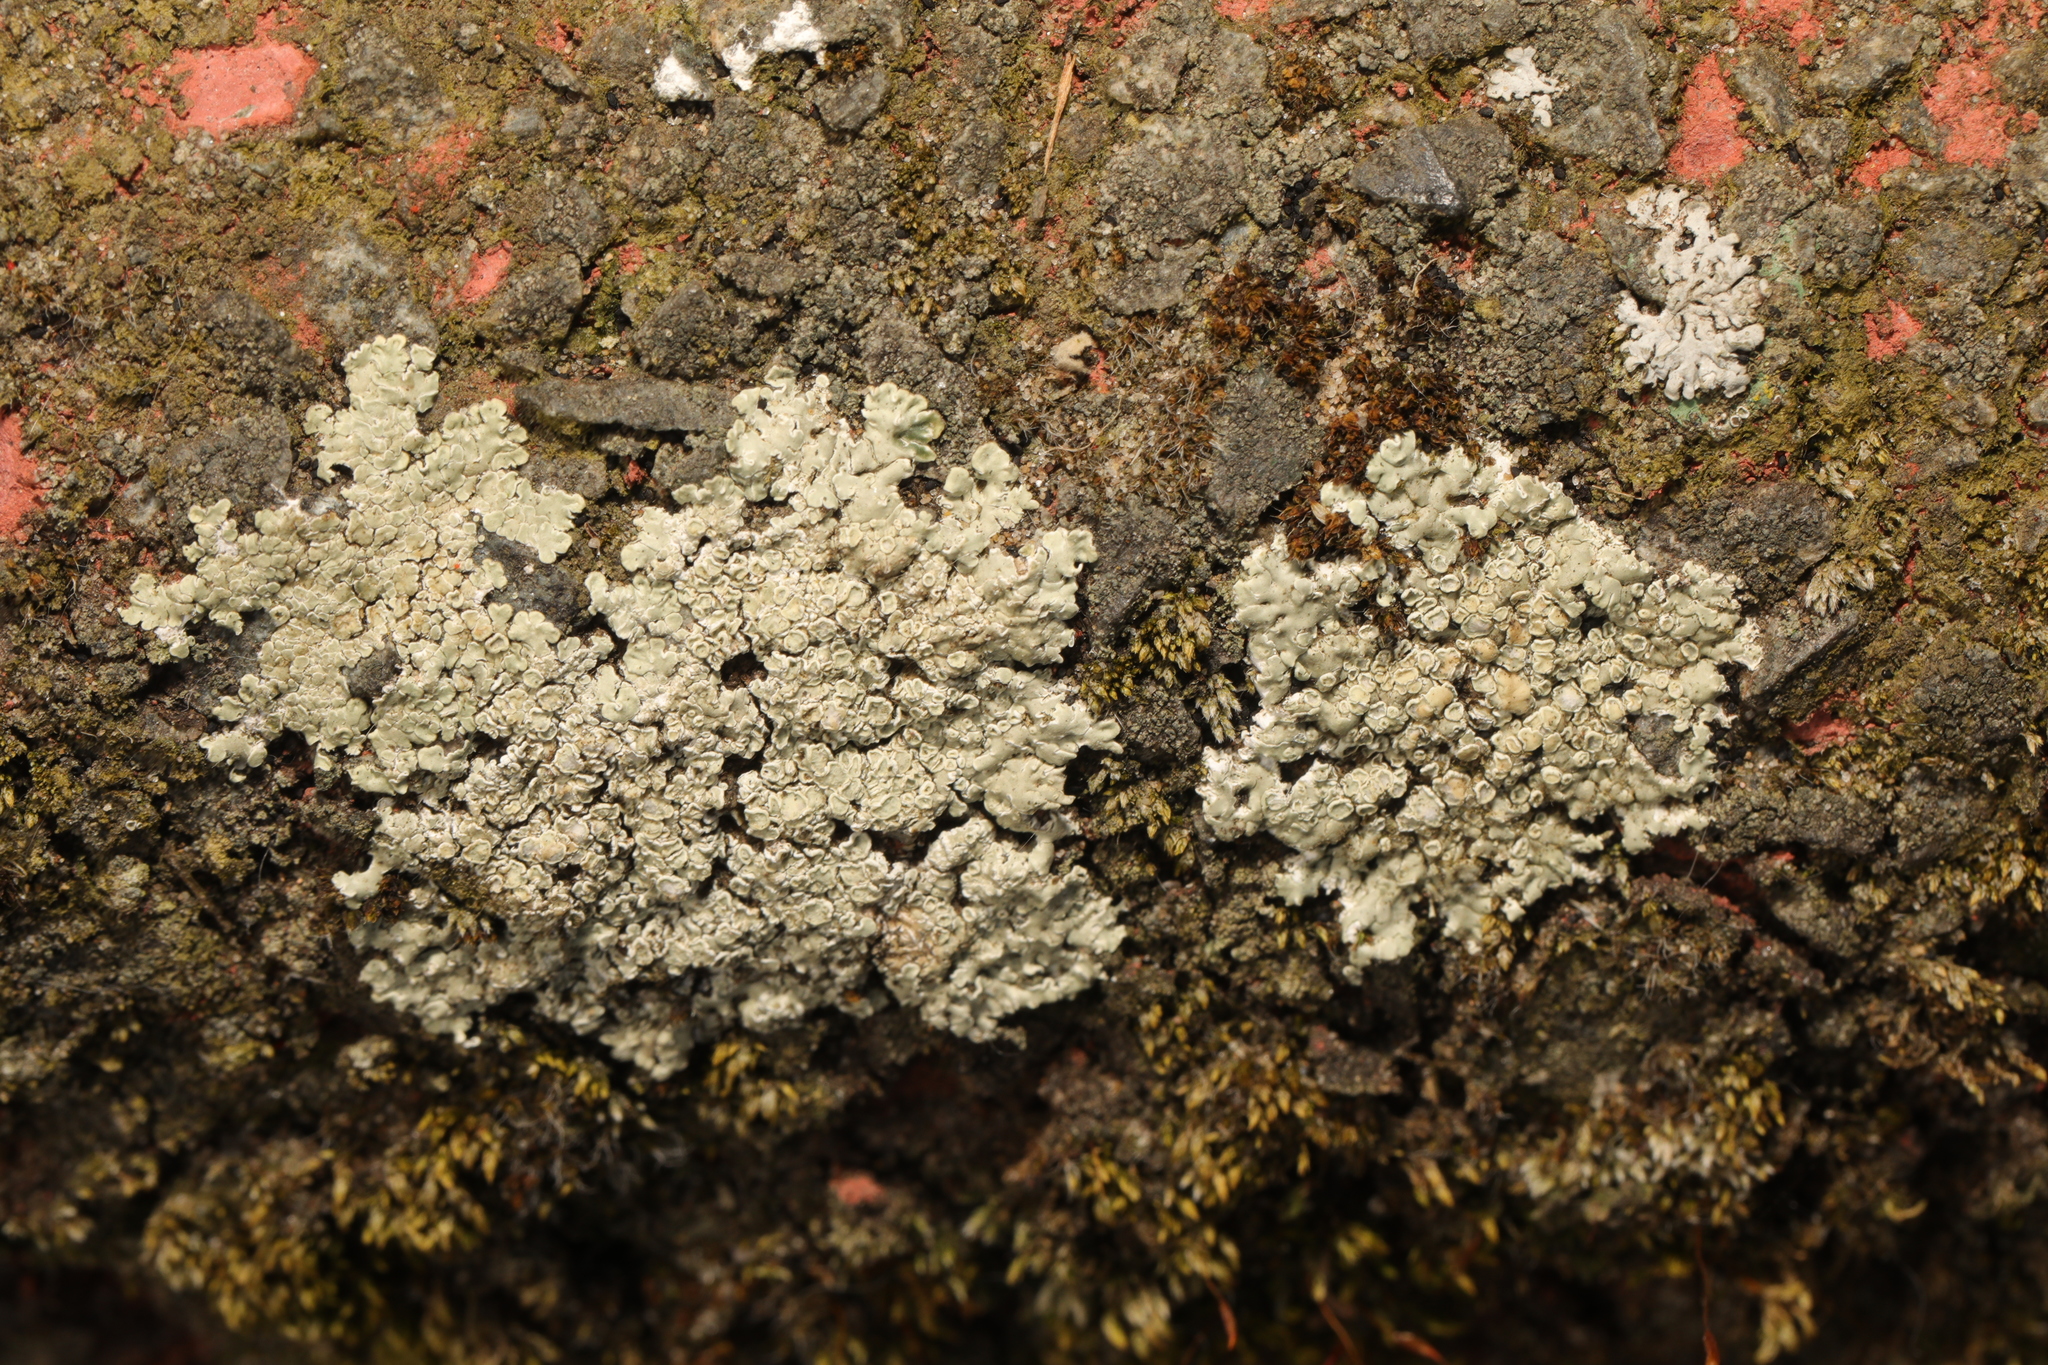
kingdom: Fungi
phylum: Ascomycota
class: Lecanoromycetes
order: Lecanorales
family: Lecanoraceae
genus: Protoparmeliopsis
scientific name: Protoparmeliopsis muralis
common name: Stonewall rim lichen
